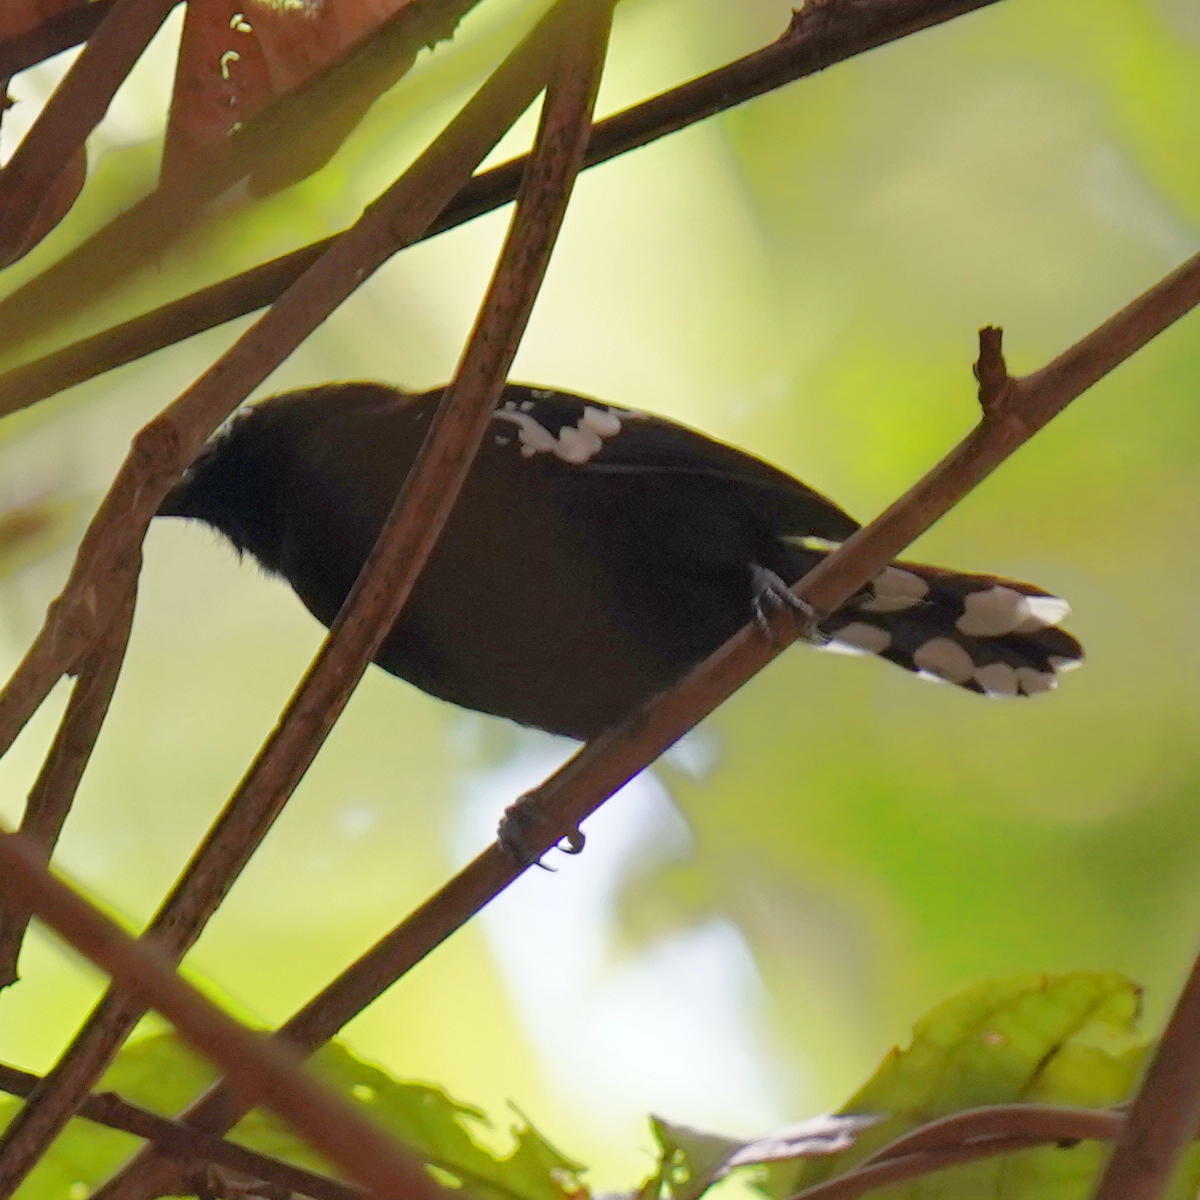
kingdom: Animalia
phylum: Chordata
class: Aves
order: Passeriformes
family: Thamnophilidae
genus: Microrhopias
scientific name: Microrhopias quixensis
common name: Dot-winged antwren
